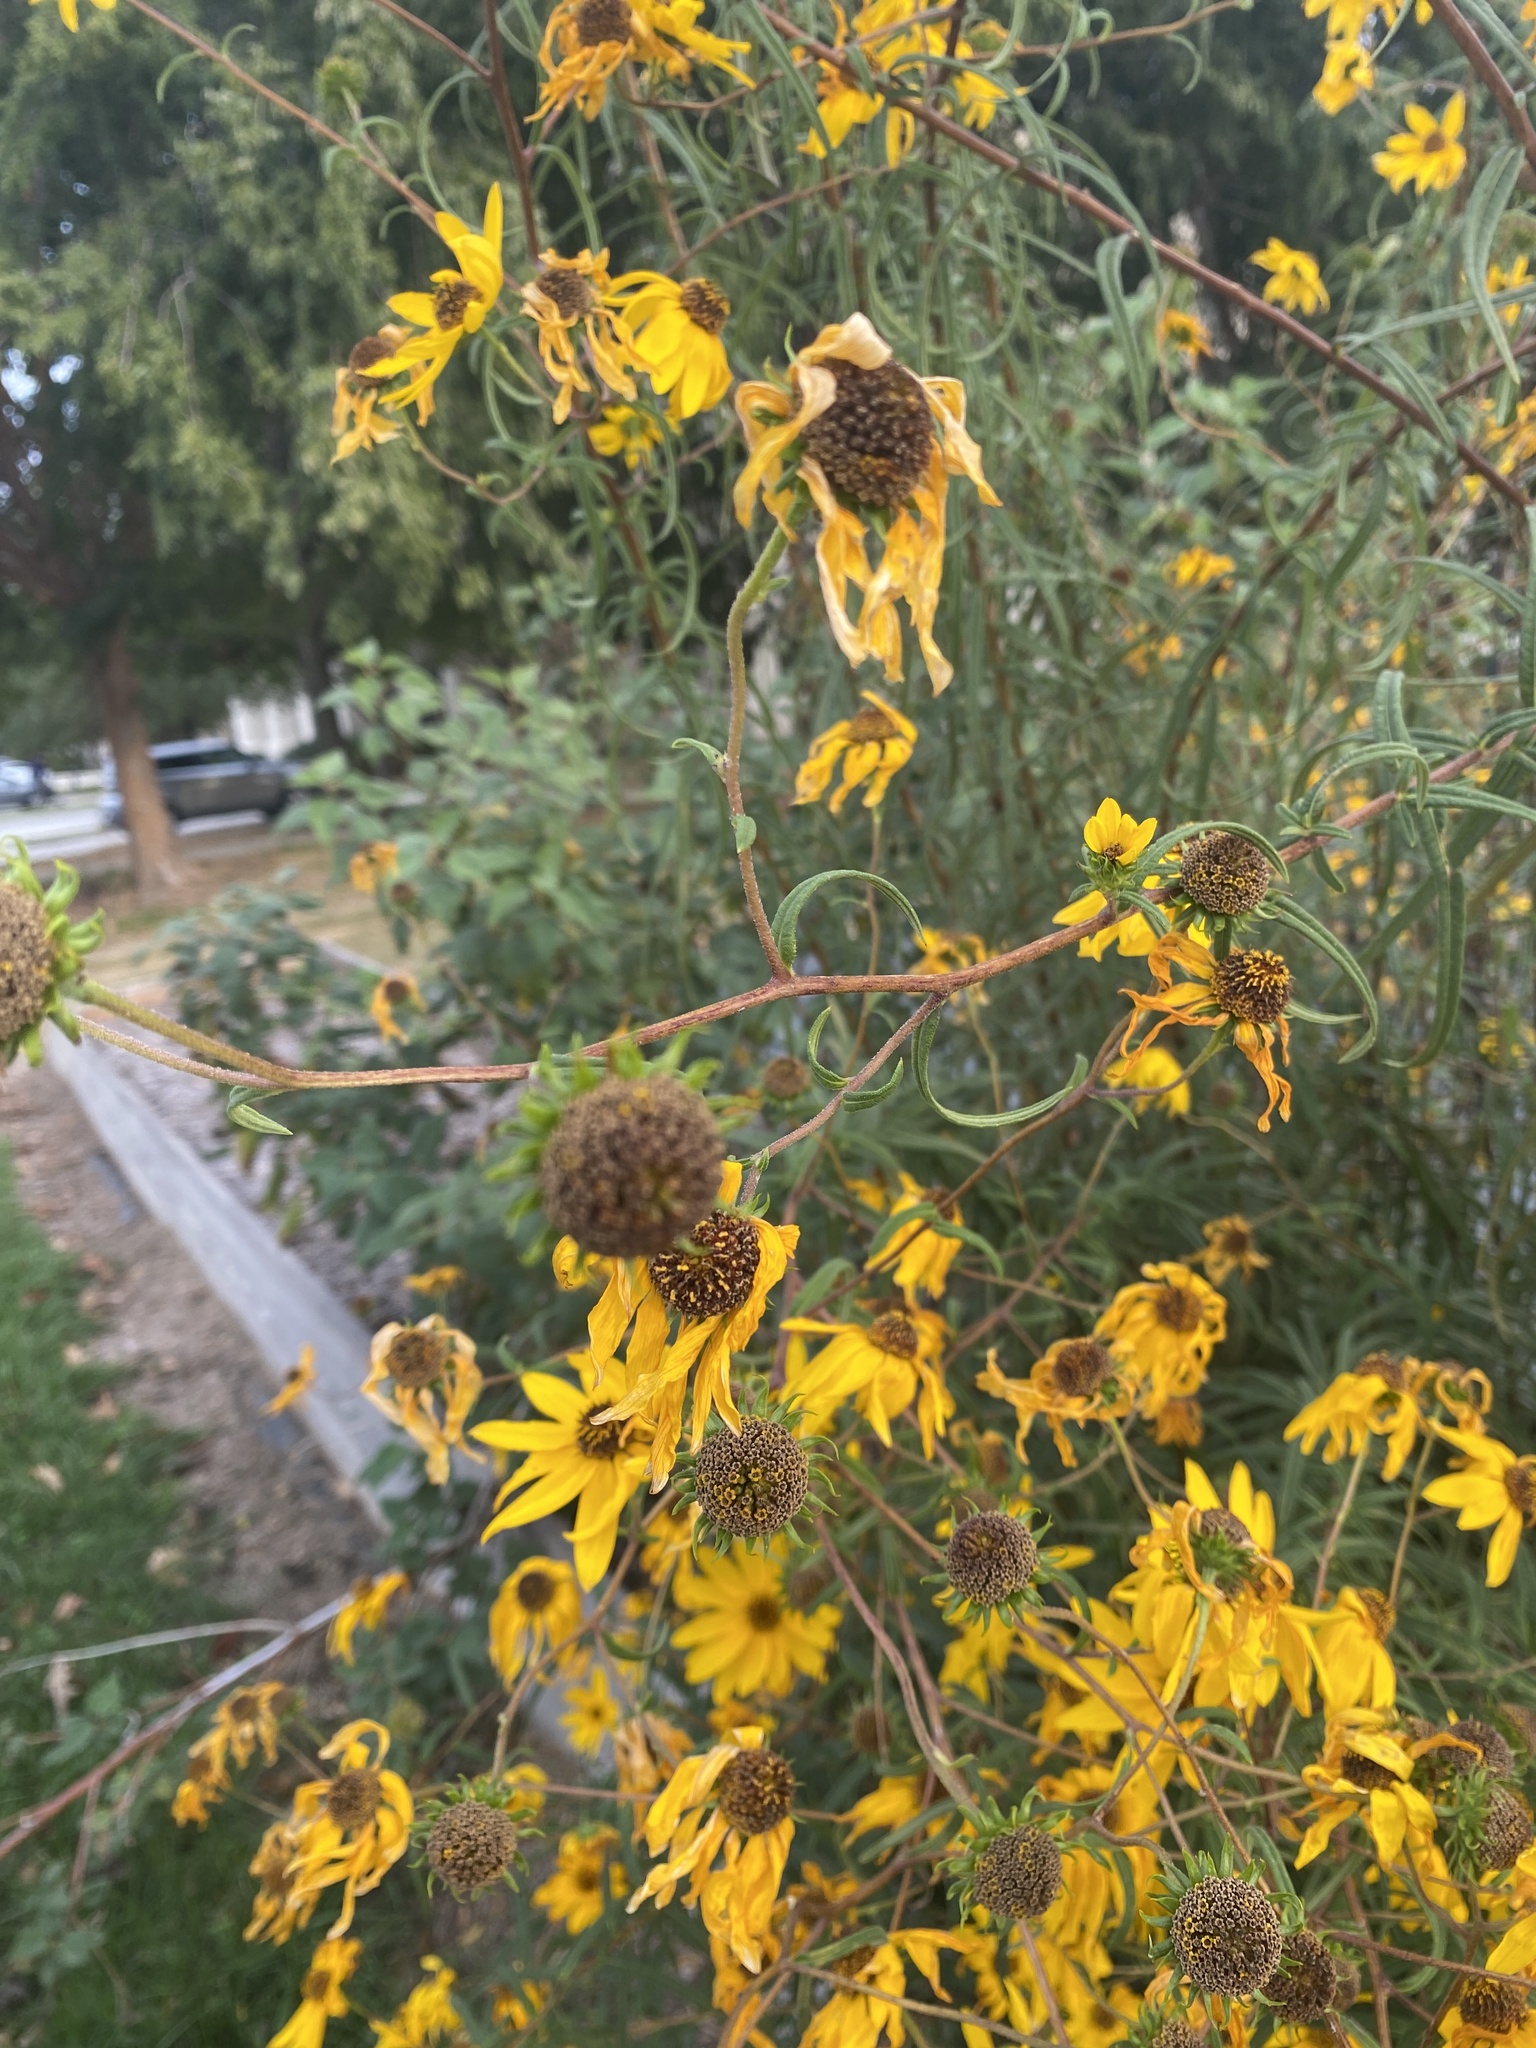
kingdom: Plantae
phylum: Tracheophyta
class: Magnoliopsida
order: Asterales
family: Asteraceae
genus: Helianthus
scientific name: Helianthus angustifolius
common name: Swamp sunflower
